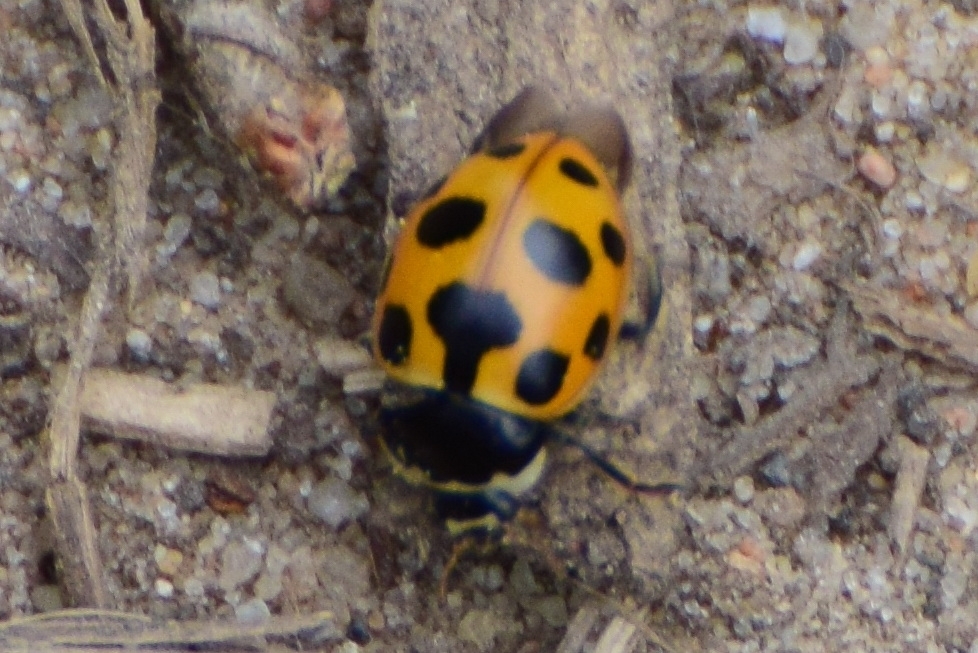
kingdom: Animalia
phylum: Arthropoda
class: Insecta
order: Coleoptera
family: Coccinellidae
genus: Ceratomegilla
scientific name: Ceratomegilla notata
